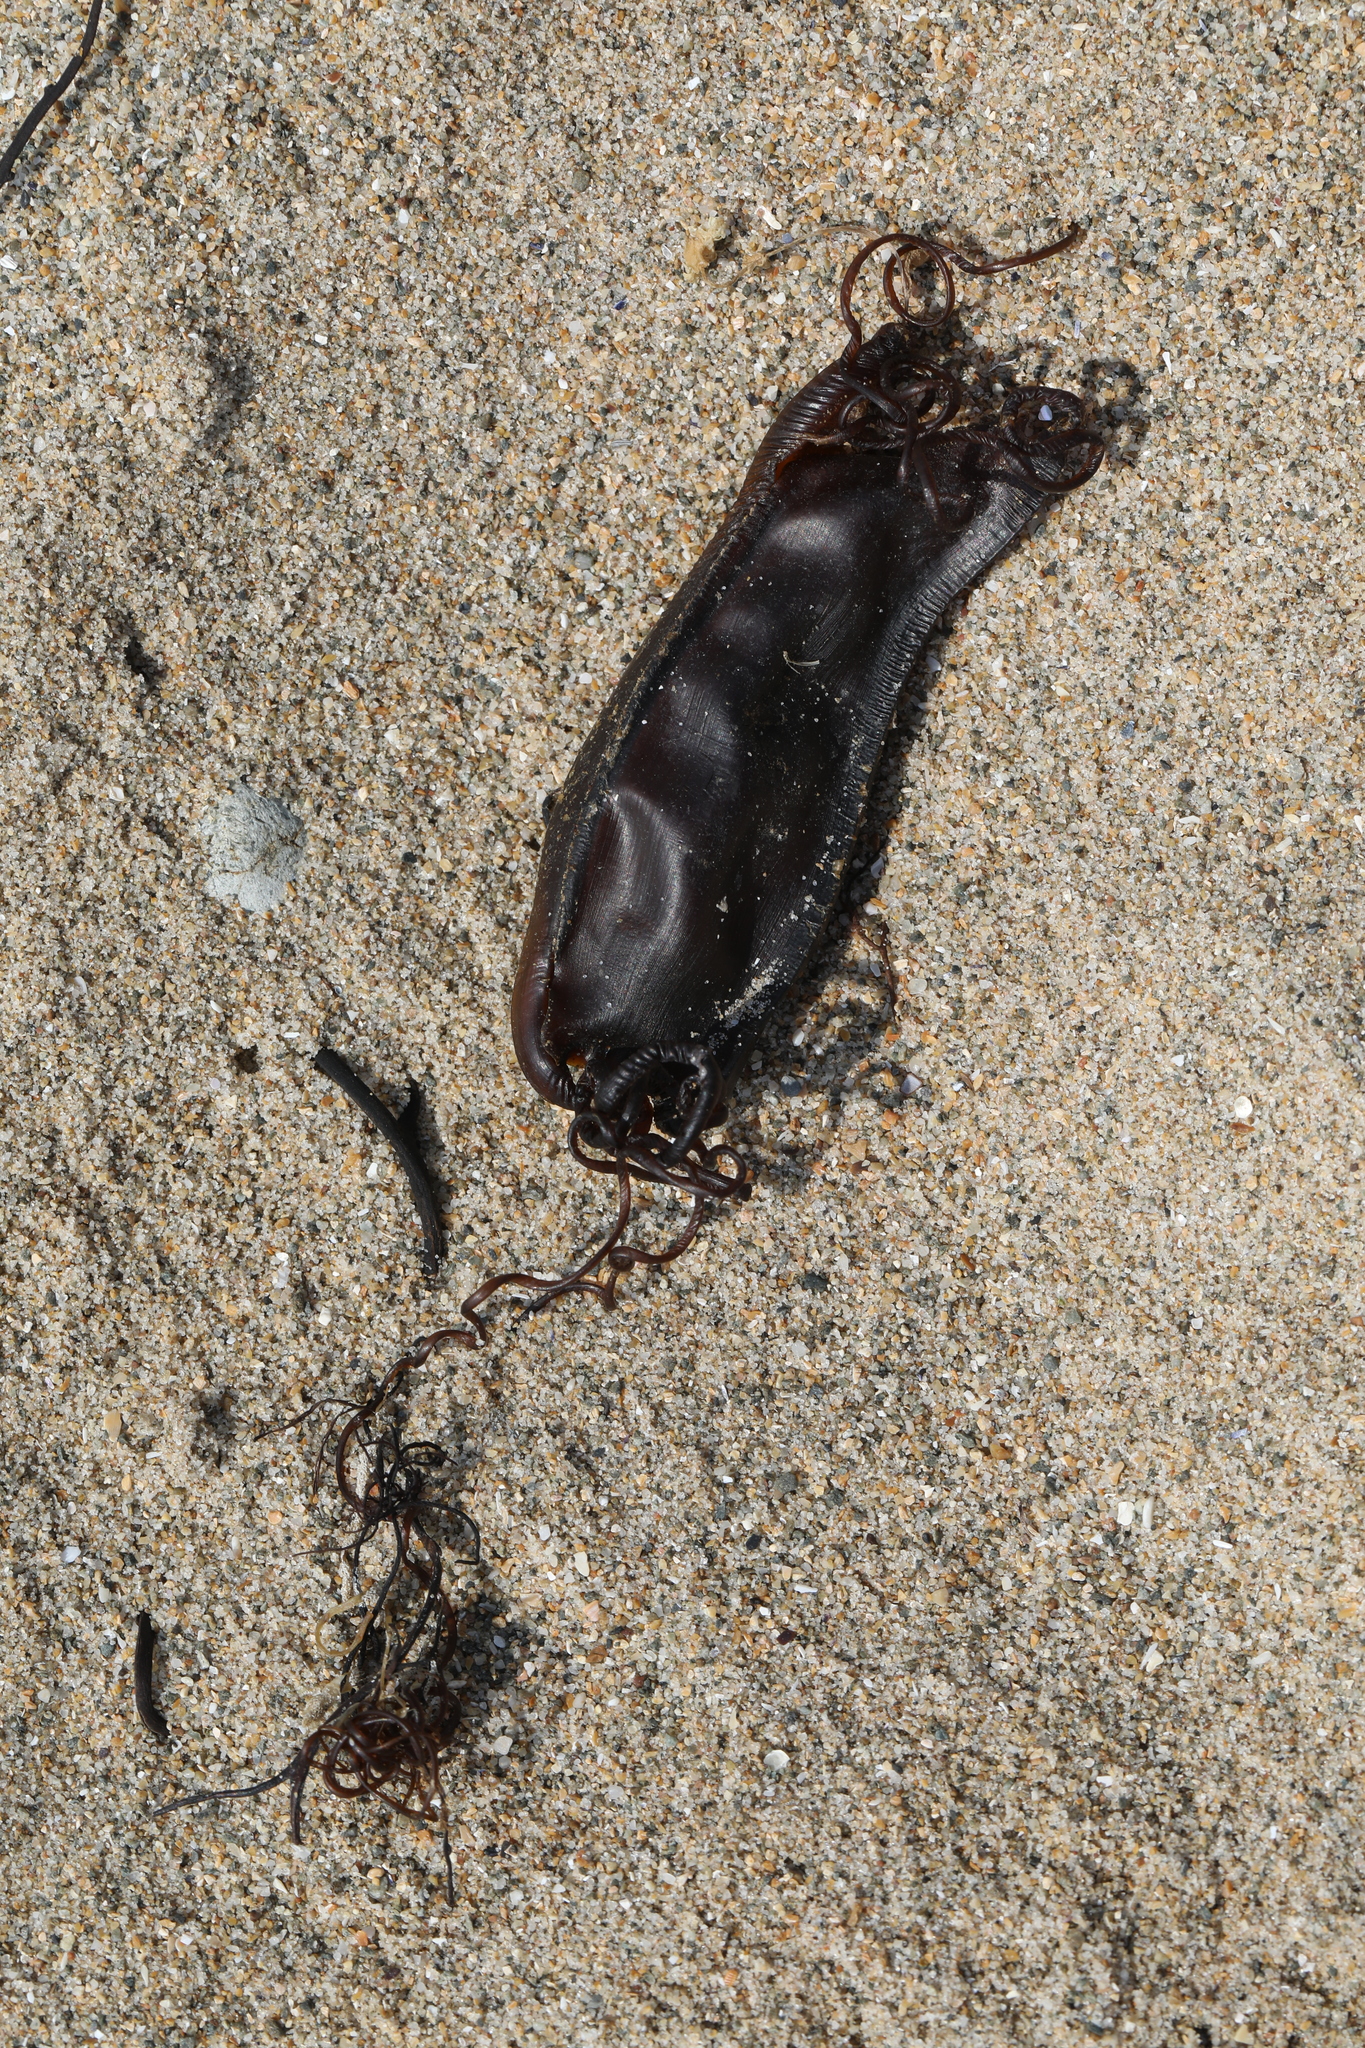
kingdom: Animalia
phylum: Chordata
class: Elasmobranchii
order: Carcharhiniformes
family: Scyliorhinidae
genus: Scyliorhinus
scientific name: Scyliorhinus stellaris
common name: Nursehound
